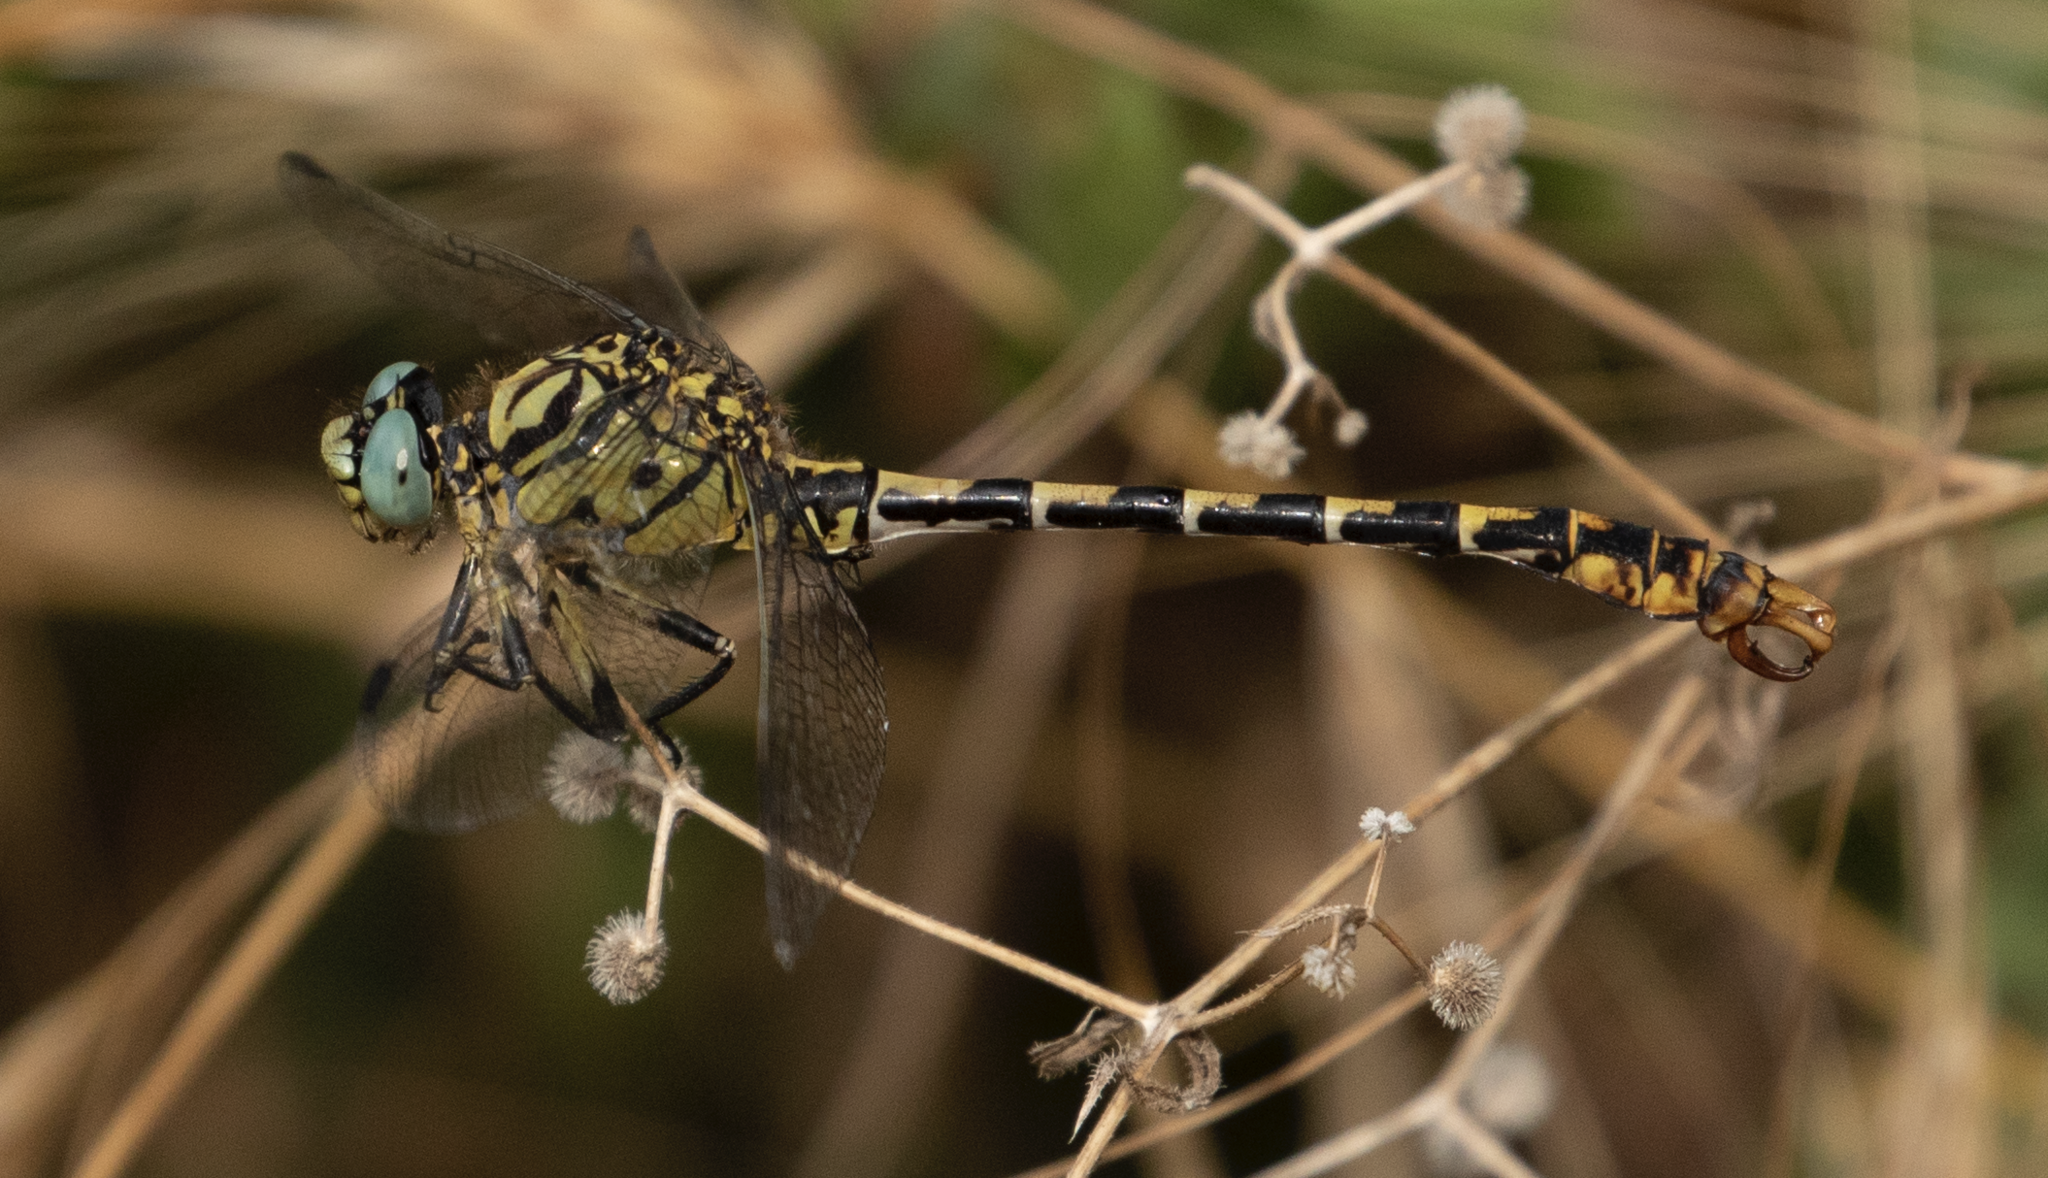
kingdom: Animalia
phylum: Arthropoda
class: Insecta
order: Odonata
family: Gomphidae
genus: Onychogomphus
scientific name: Onychogomphus forcipatus
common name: Small pincertail
